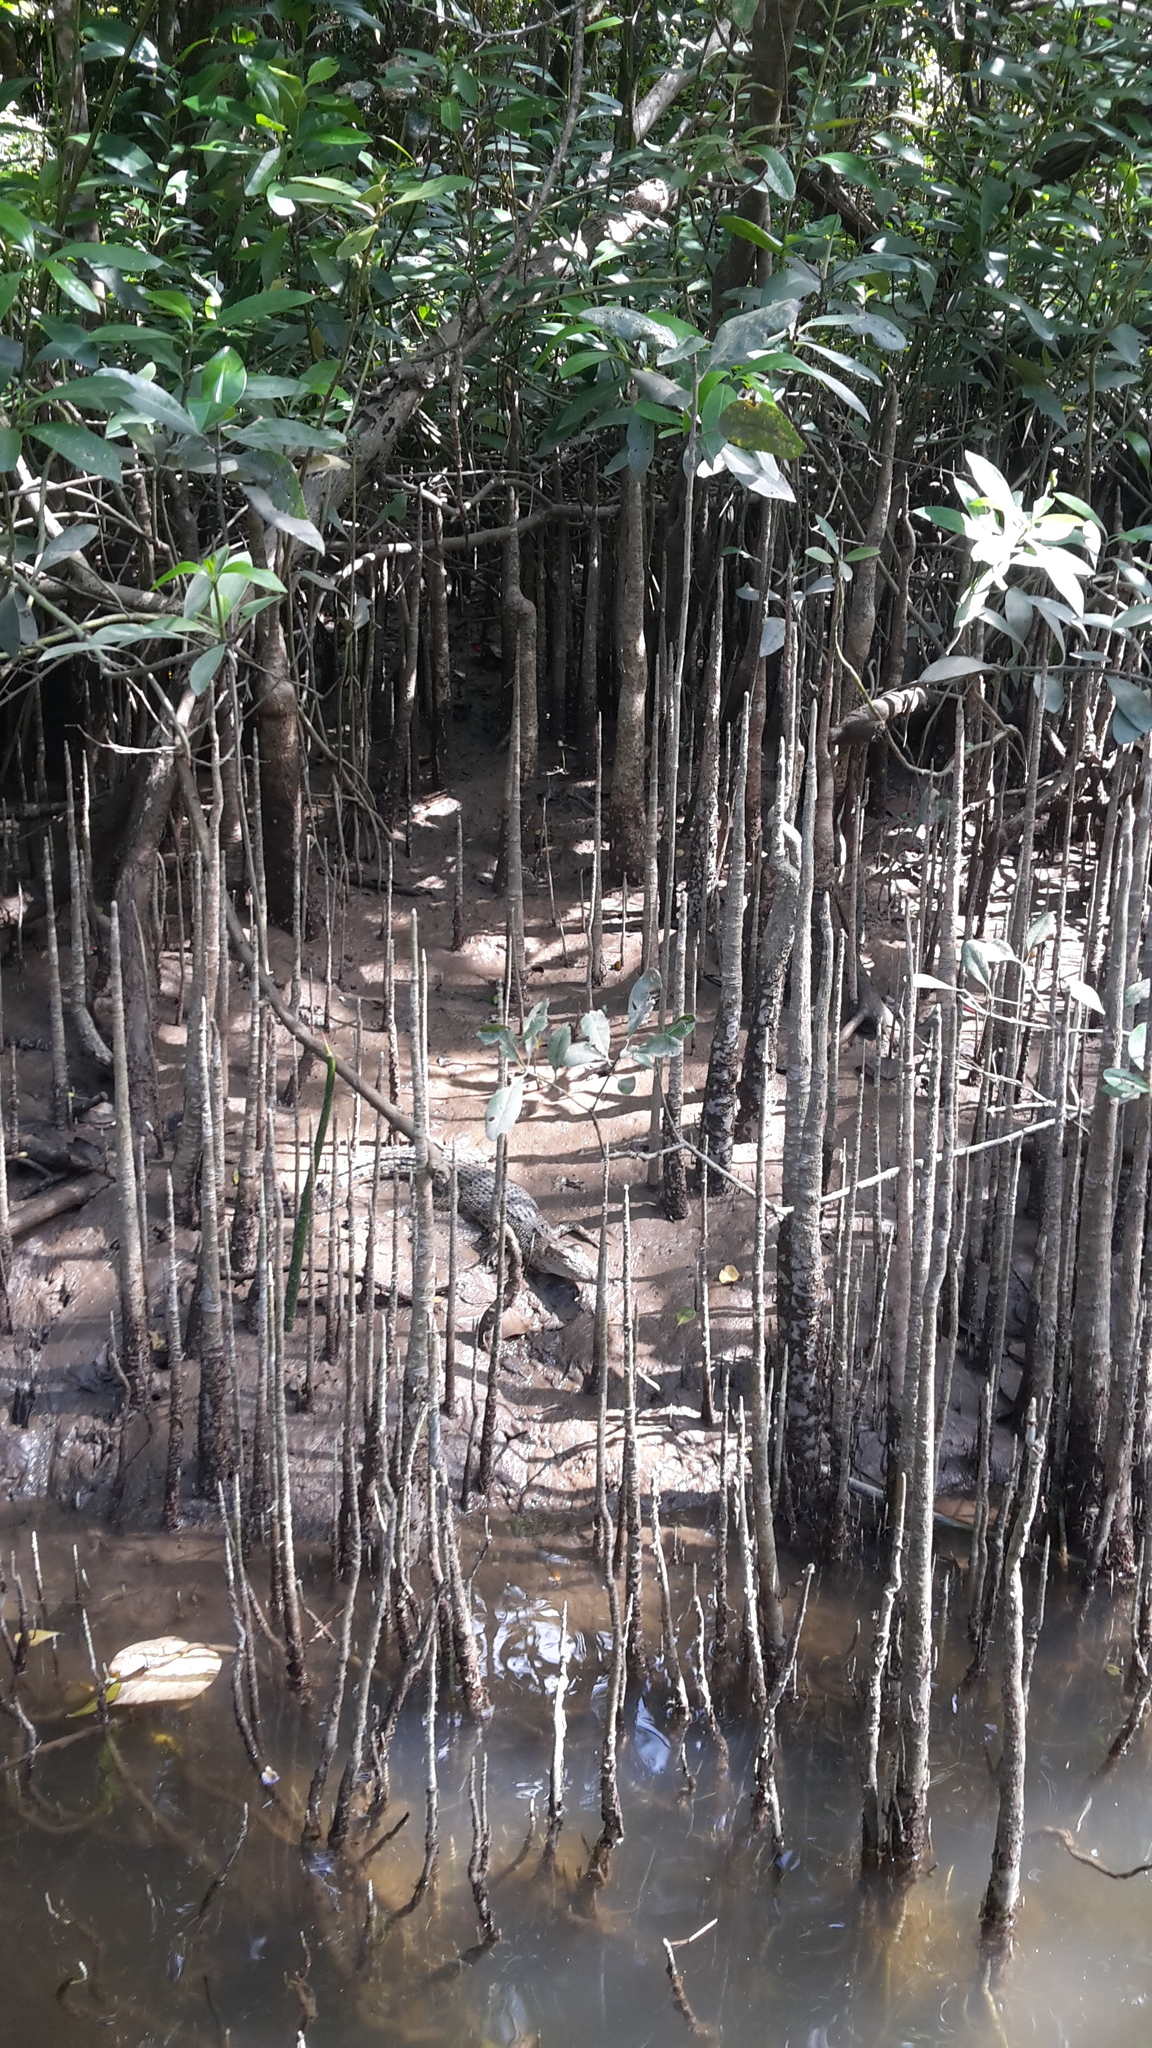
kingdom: Animalia
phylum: Chordata
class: Crocodylia
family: Crocodylidae
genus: Crocodylus
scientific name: Crocodylus porosus
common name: Saltwater crocodile
